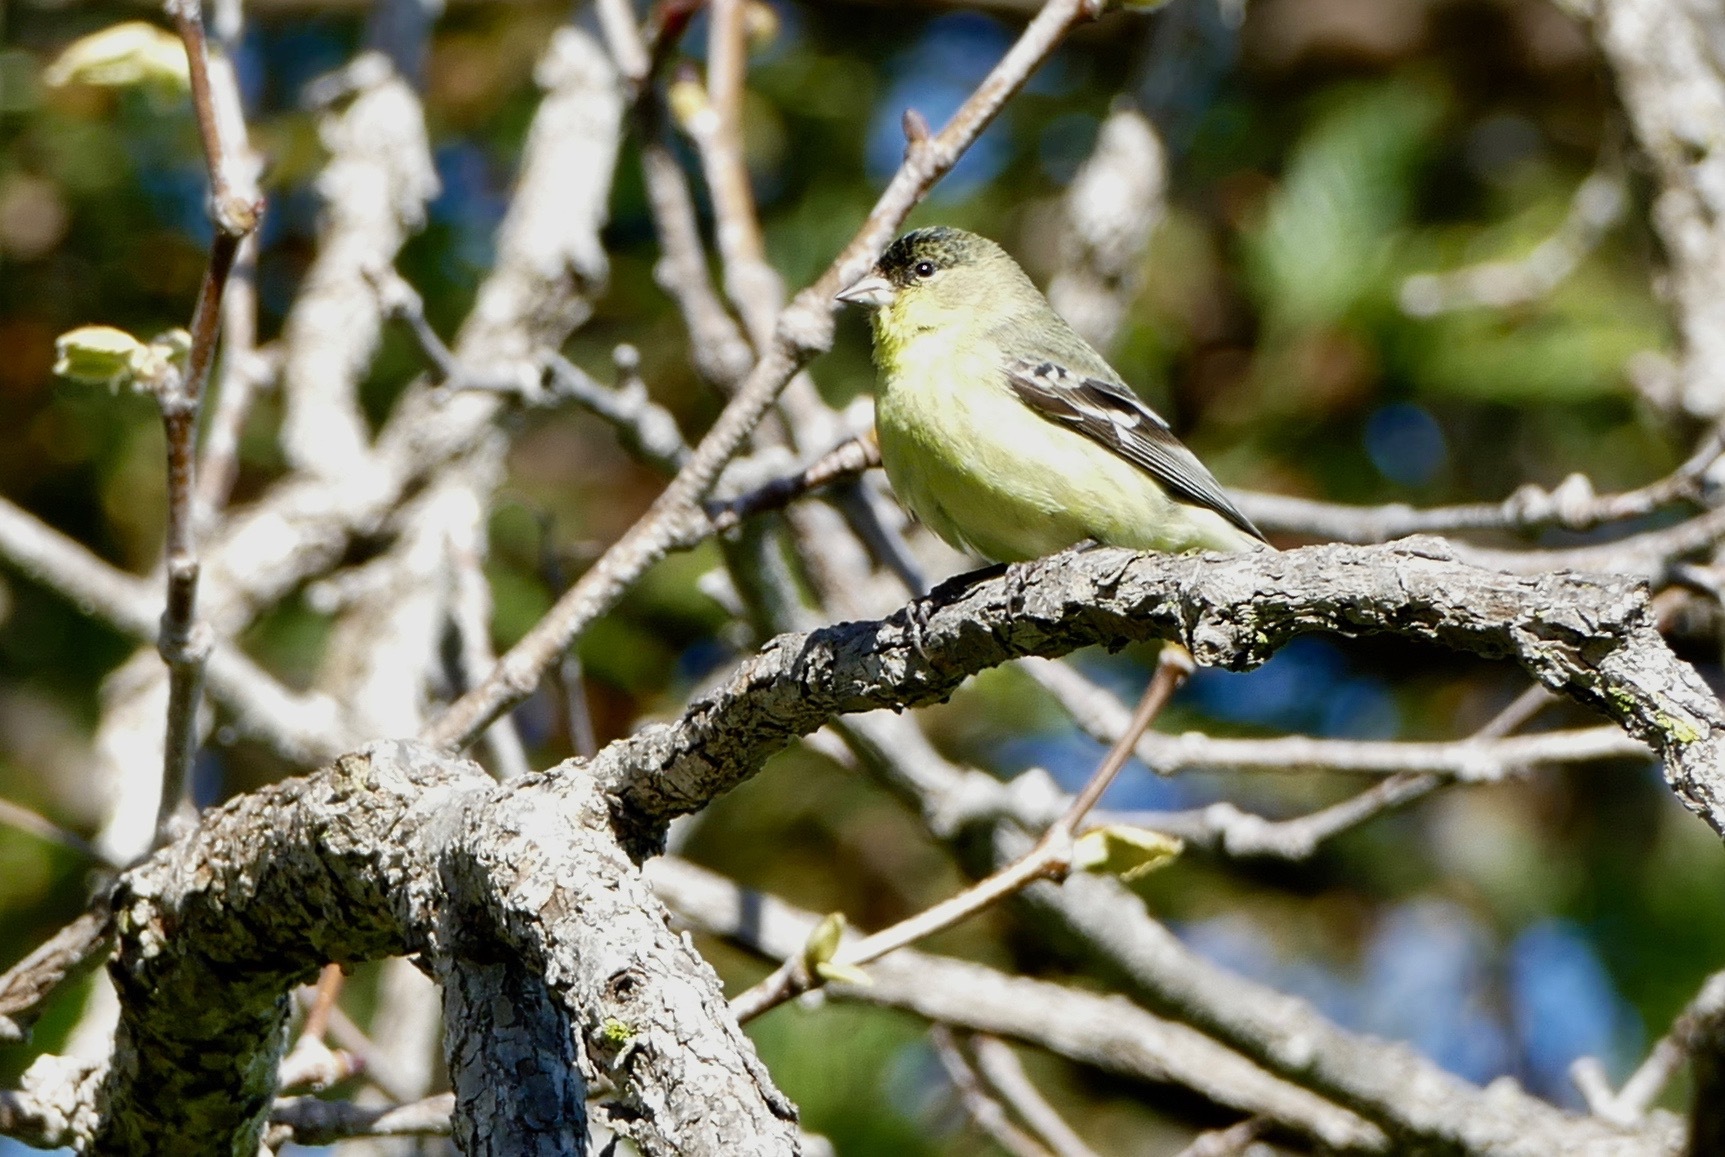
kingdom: Animalia
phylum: Chordata
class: Aves
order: Passeriformes
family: Fringillidae
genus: Spinus
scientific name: Spinus psaltria
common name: Lesser goldfinch
